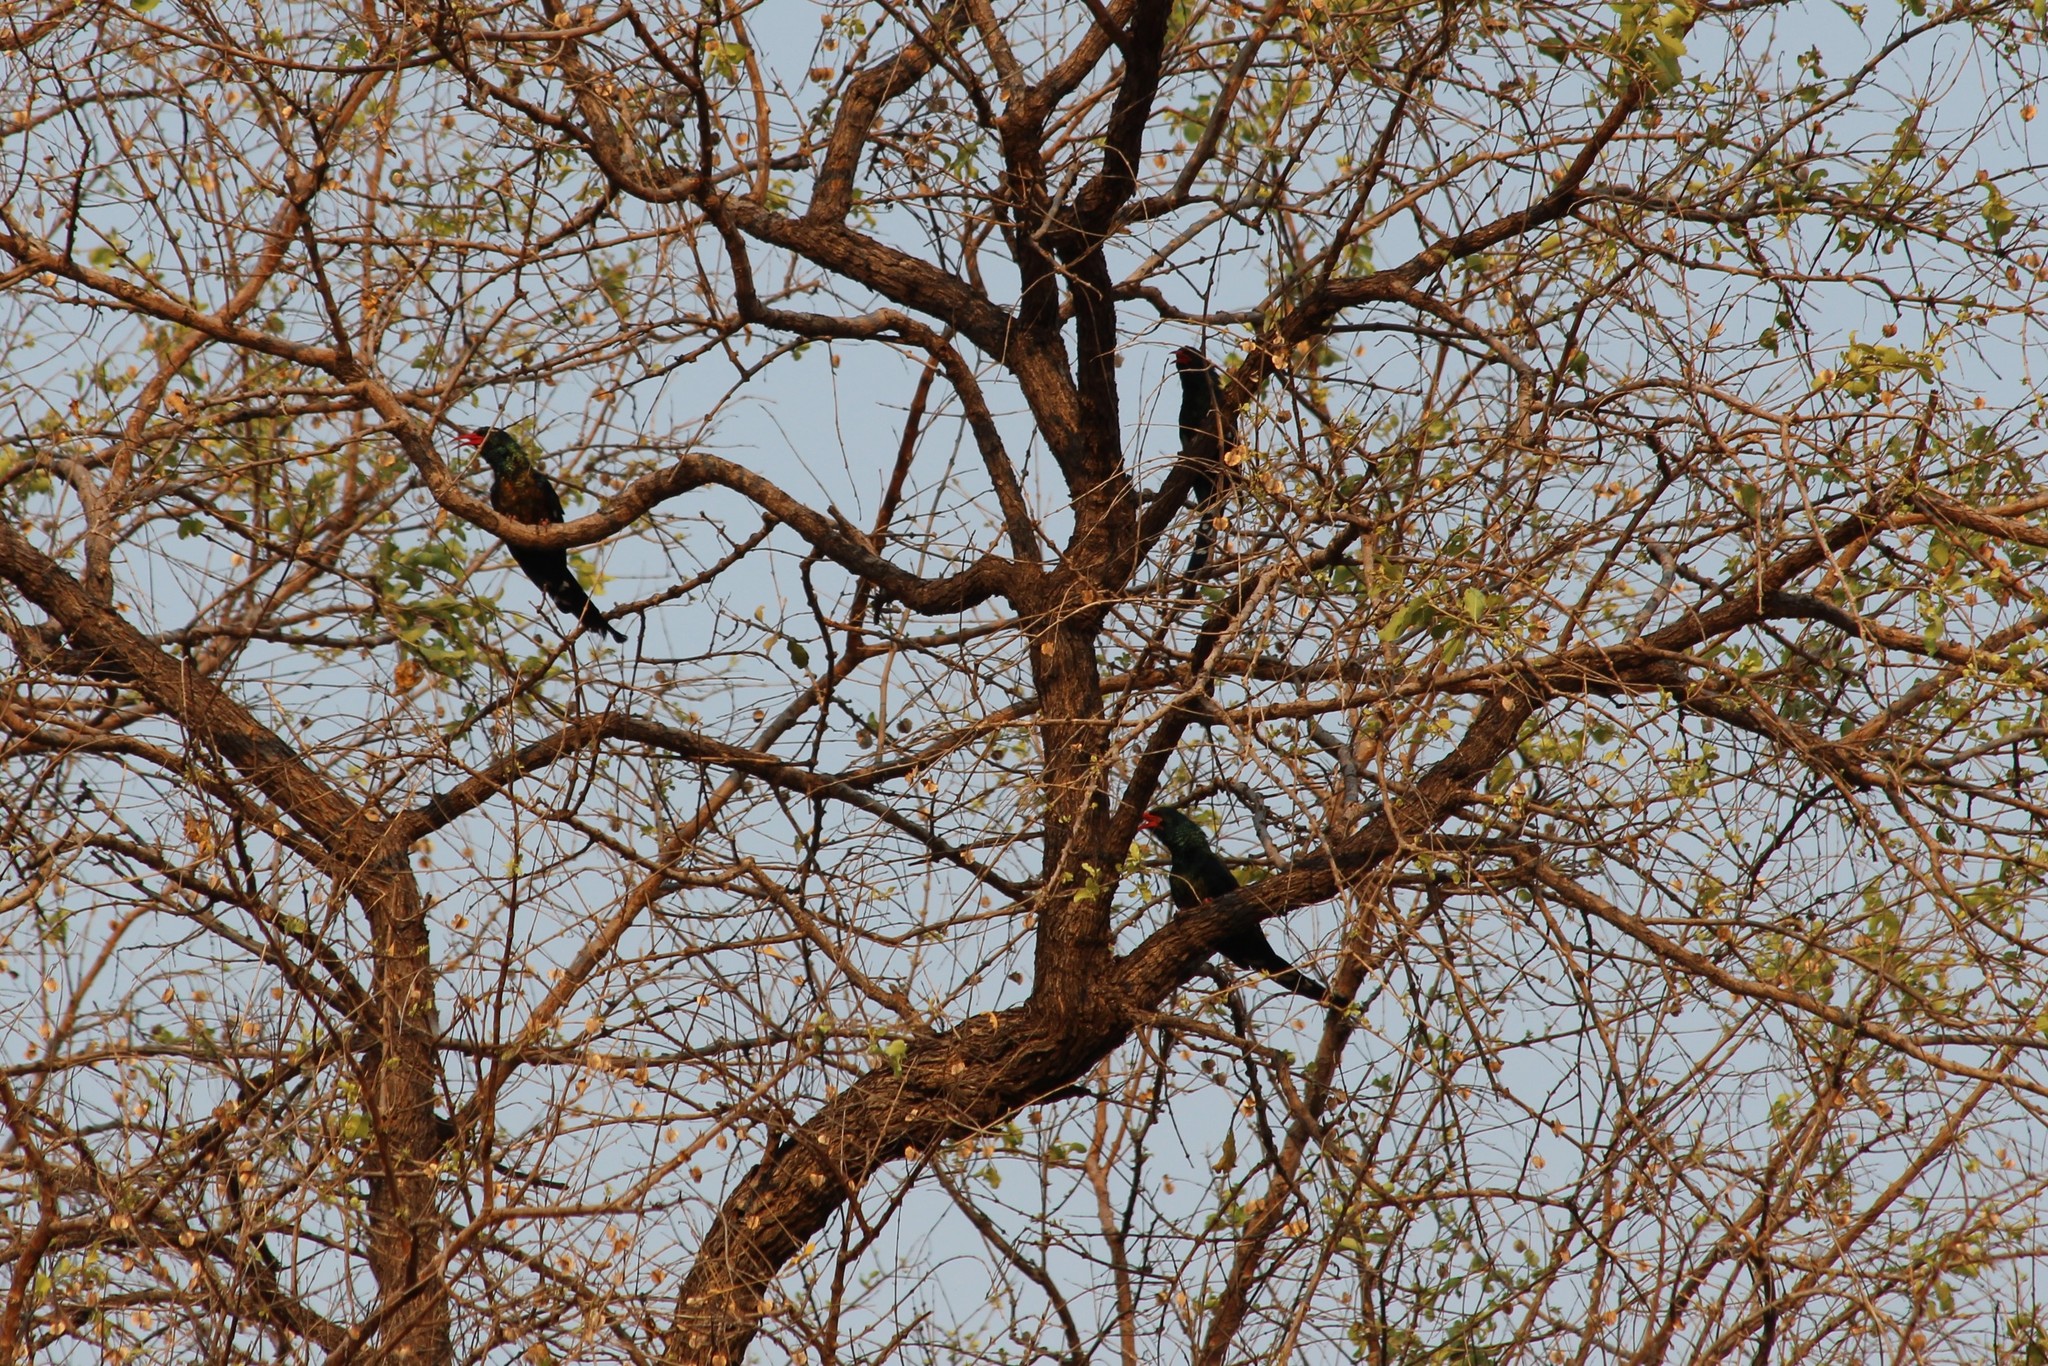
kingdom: Animalia
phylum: Chordata
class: Aves
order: Bucerotiformes
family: Phoeniculidae
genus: Phoeniculus
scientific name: Phoeniculus purpureus
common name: Green woodhoopoe
